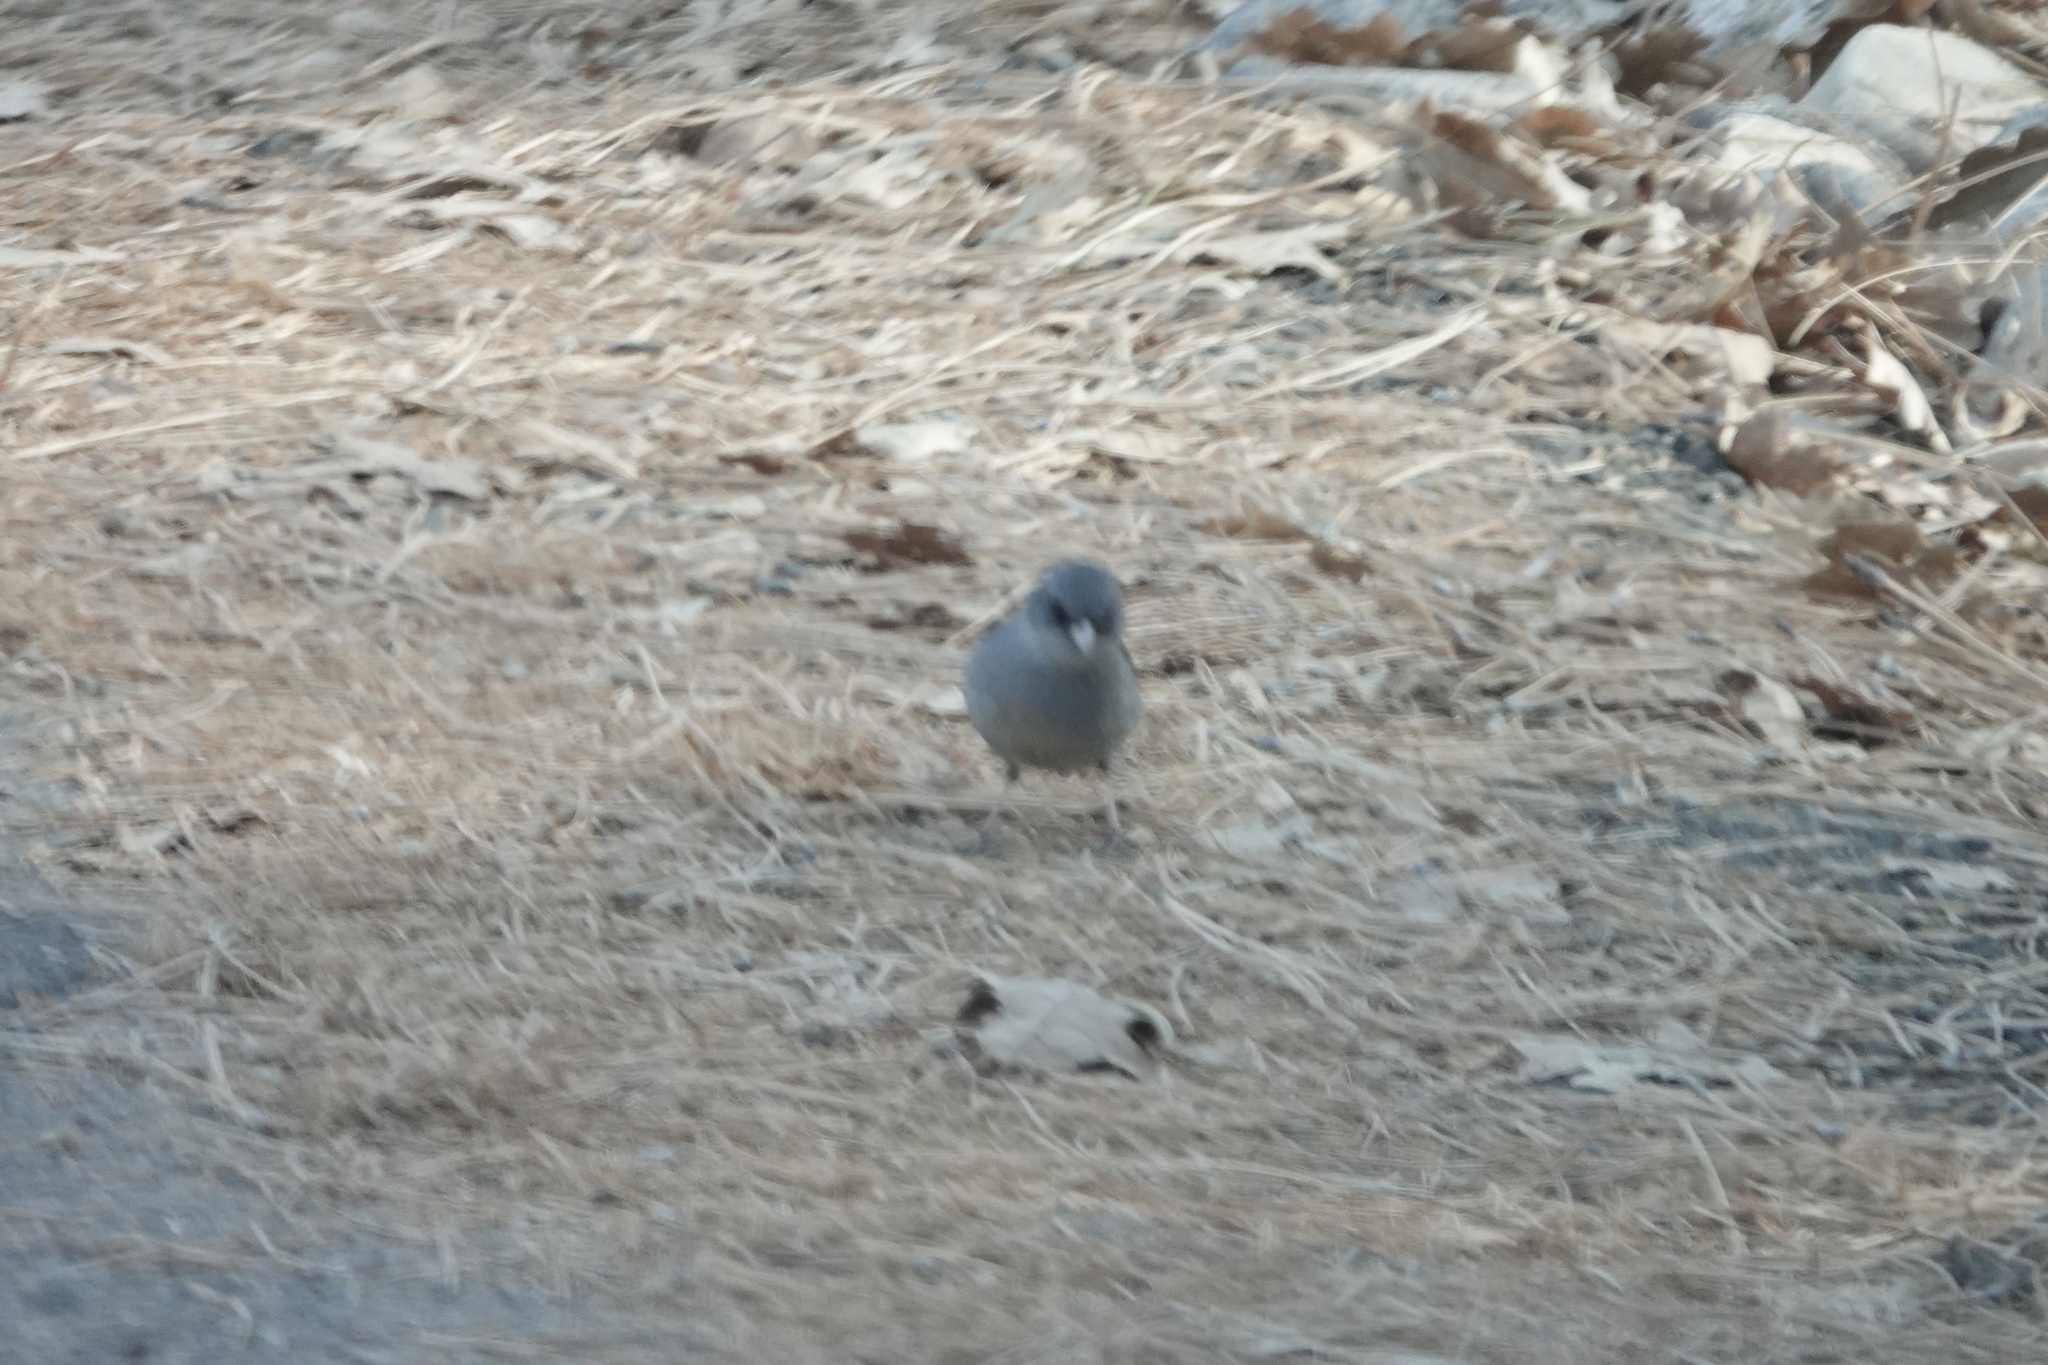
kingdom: Animalia
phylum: Chordata
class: Aves
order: Passeriformes
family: Passerellidae
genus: Junco
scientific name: Junco hyemalis
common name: Dark-eyed junco
